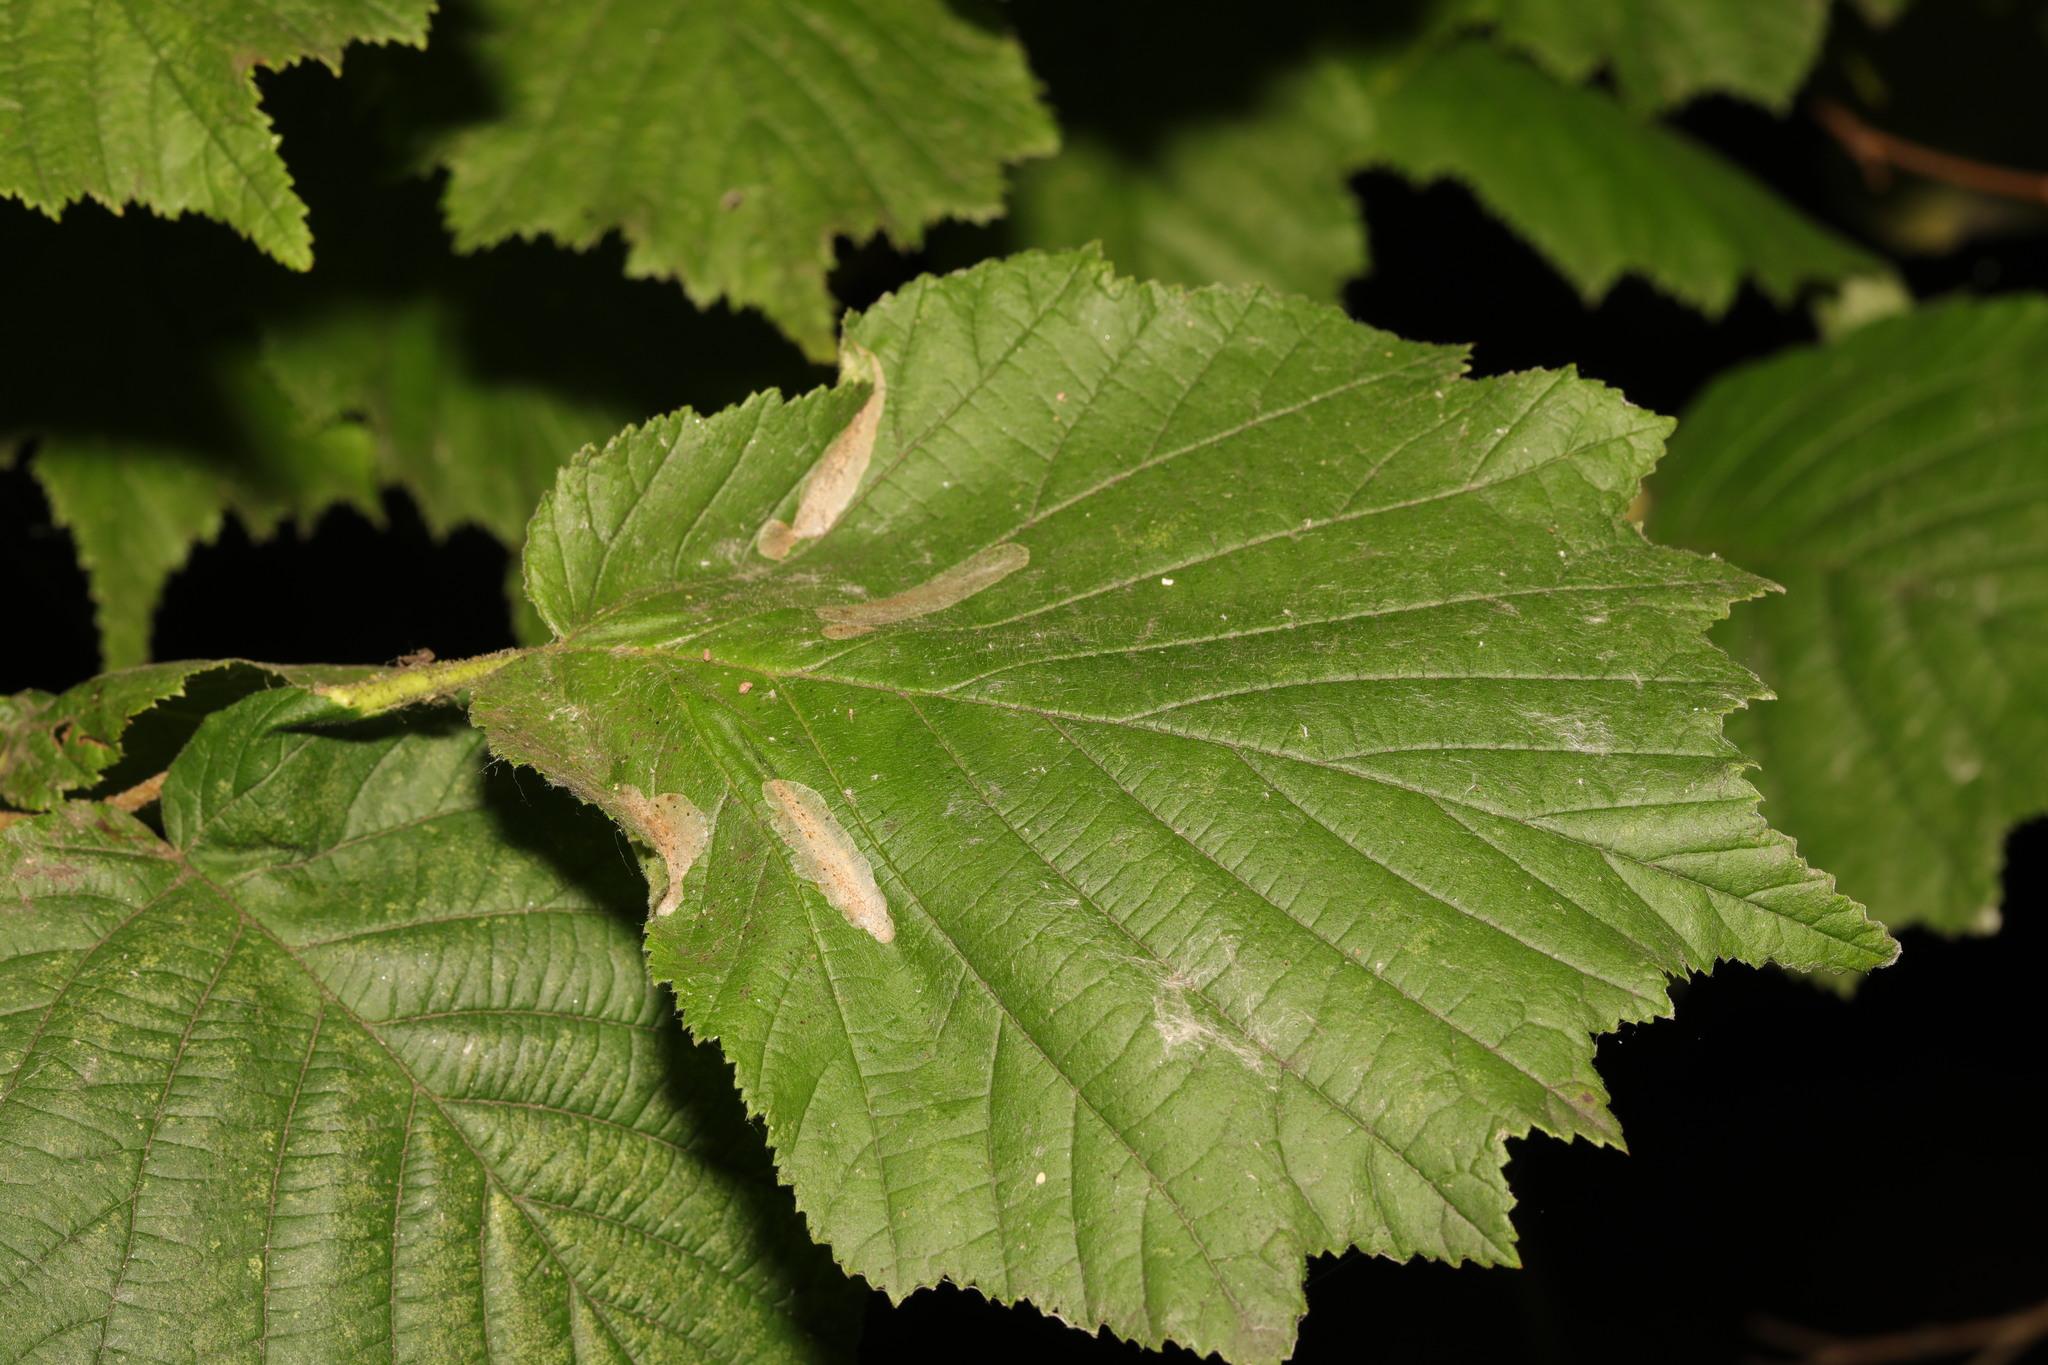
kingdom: Animalia
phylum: Arthropoda
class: Insecta
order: Lepidoptera
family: Gracillariidae
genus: Phyllonorycter
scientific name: Phyllonorycter coryli
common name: Nut-leaf blister moth
